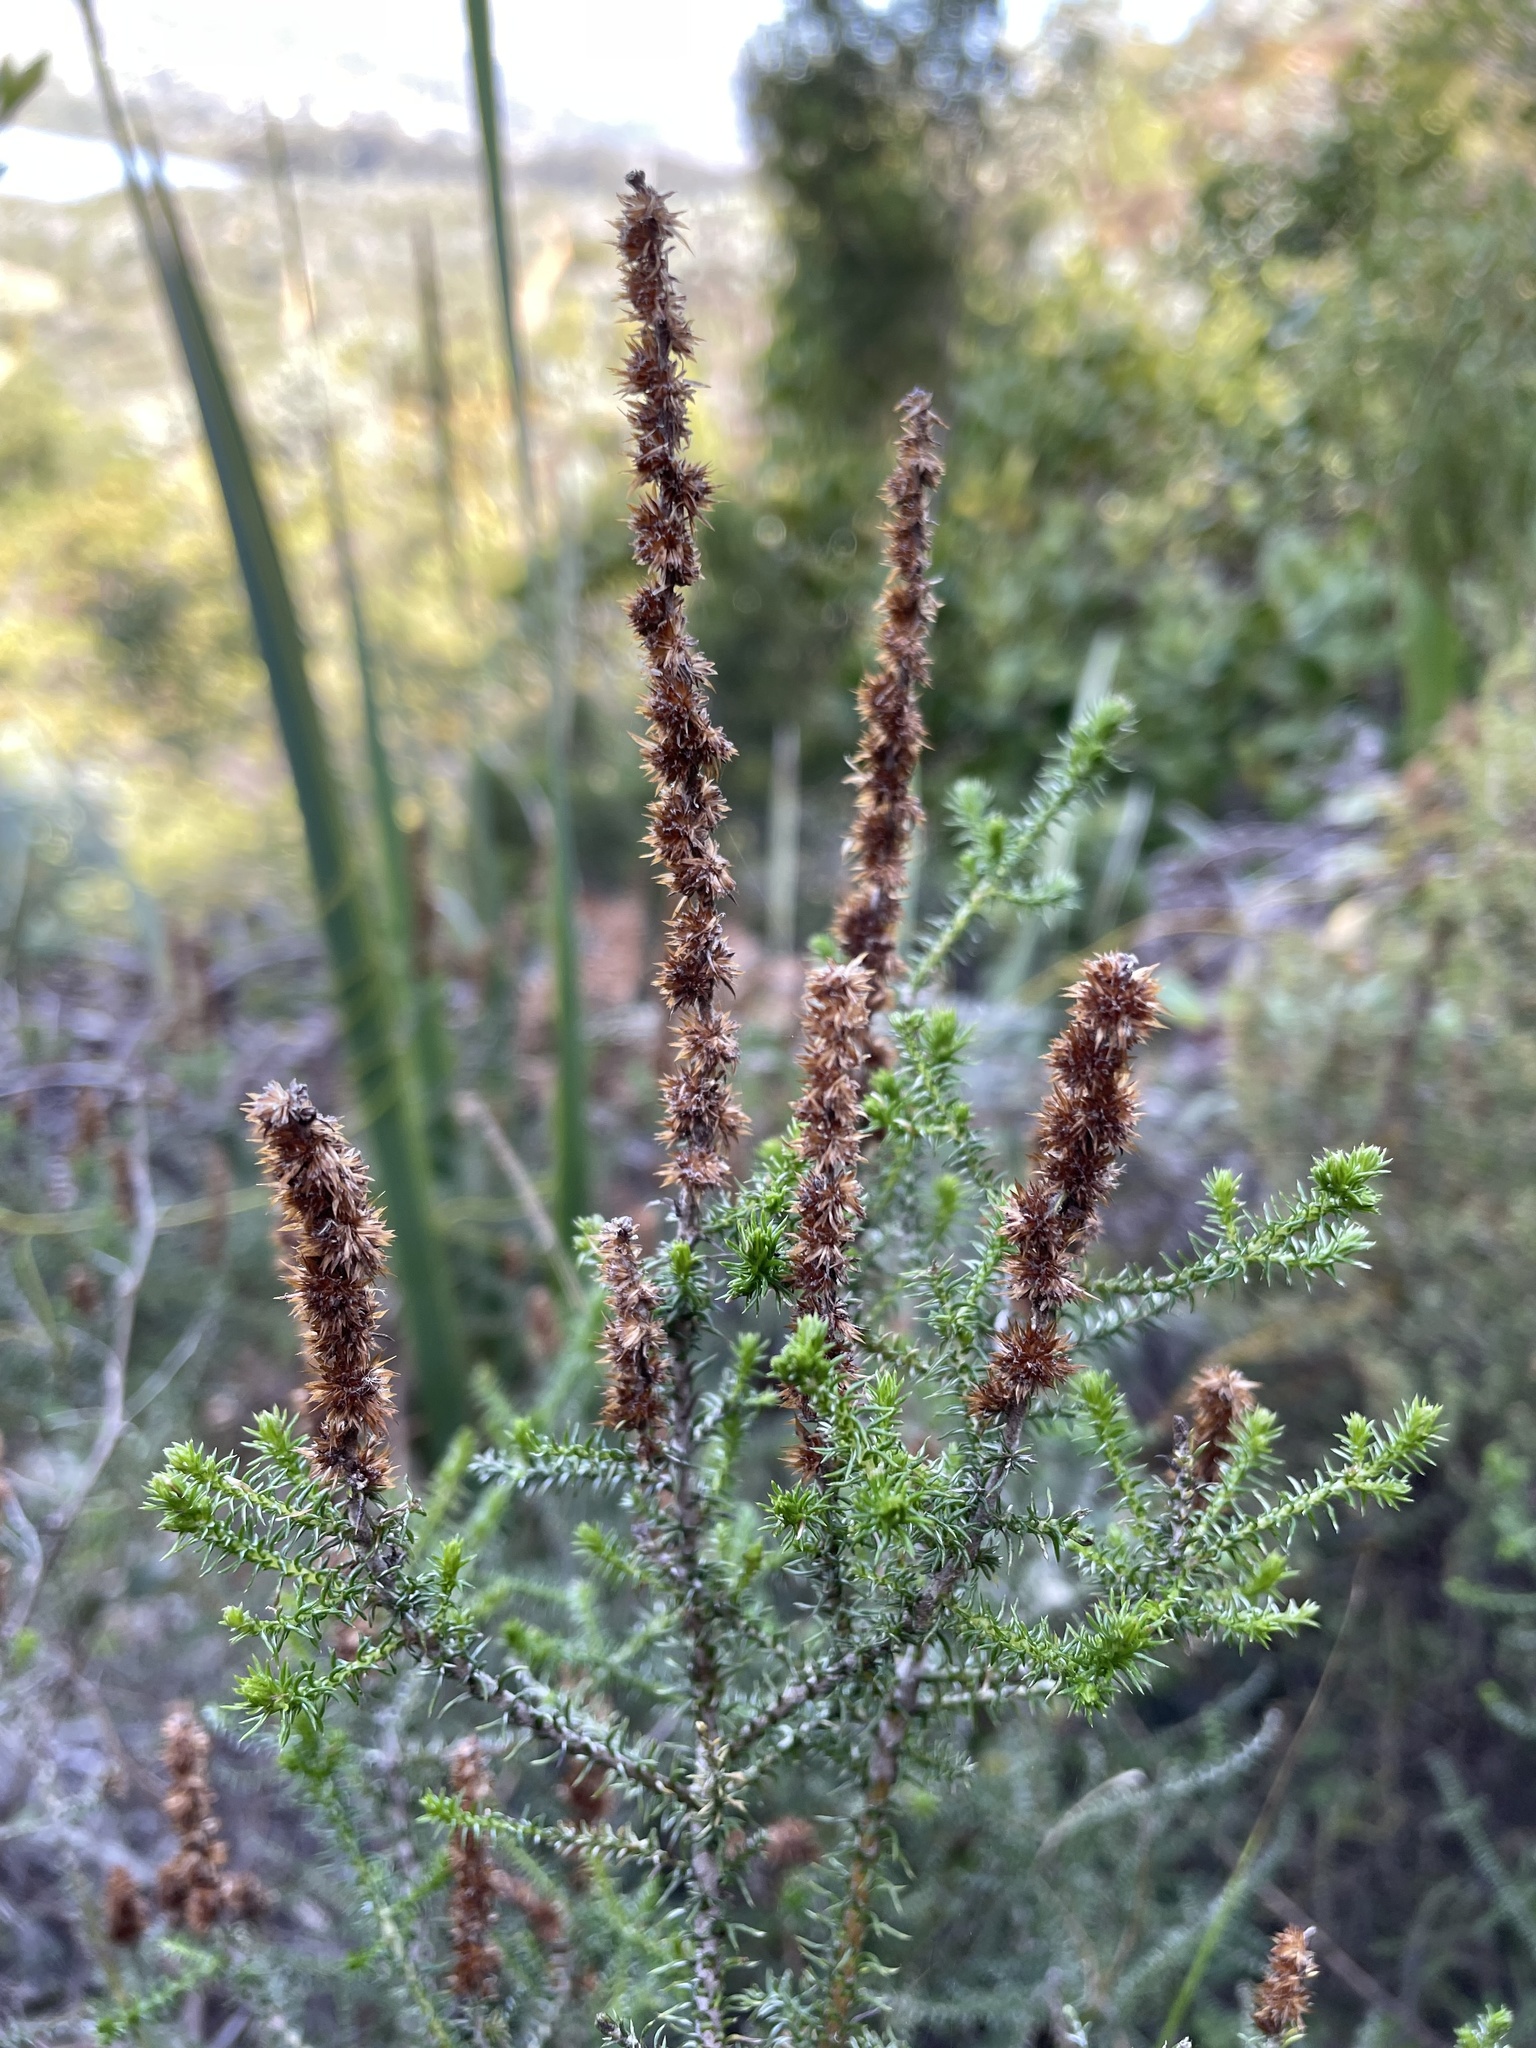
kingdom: Plantae
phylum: Tracheophyta
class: Magnoliopsida
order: Asterales
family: Asteraceae
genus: Seriphium
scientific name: Seriphium cinereum
